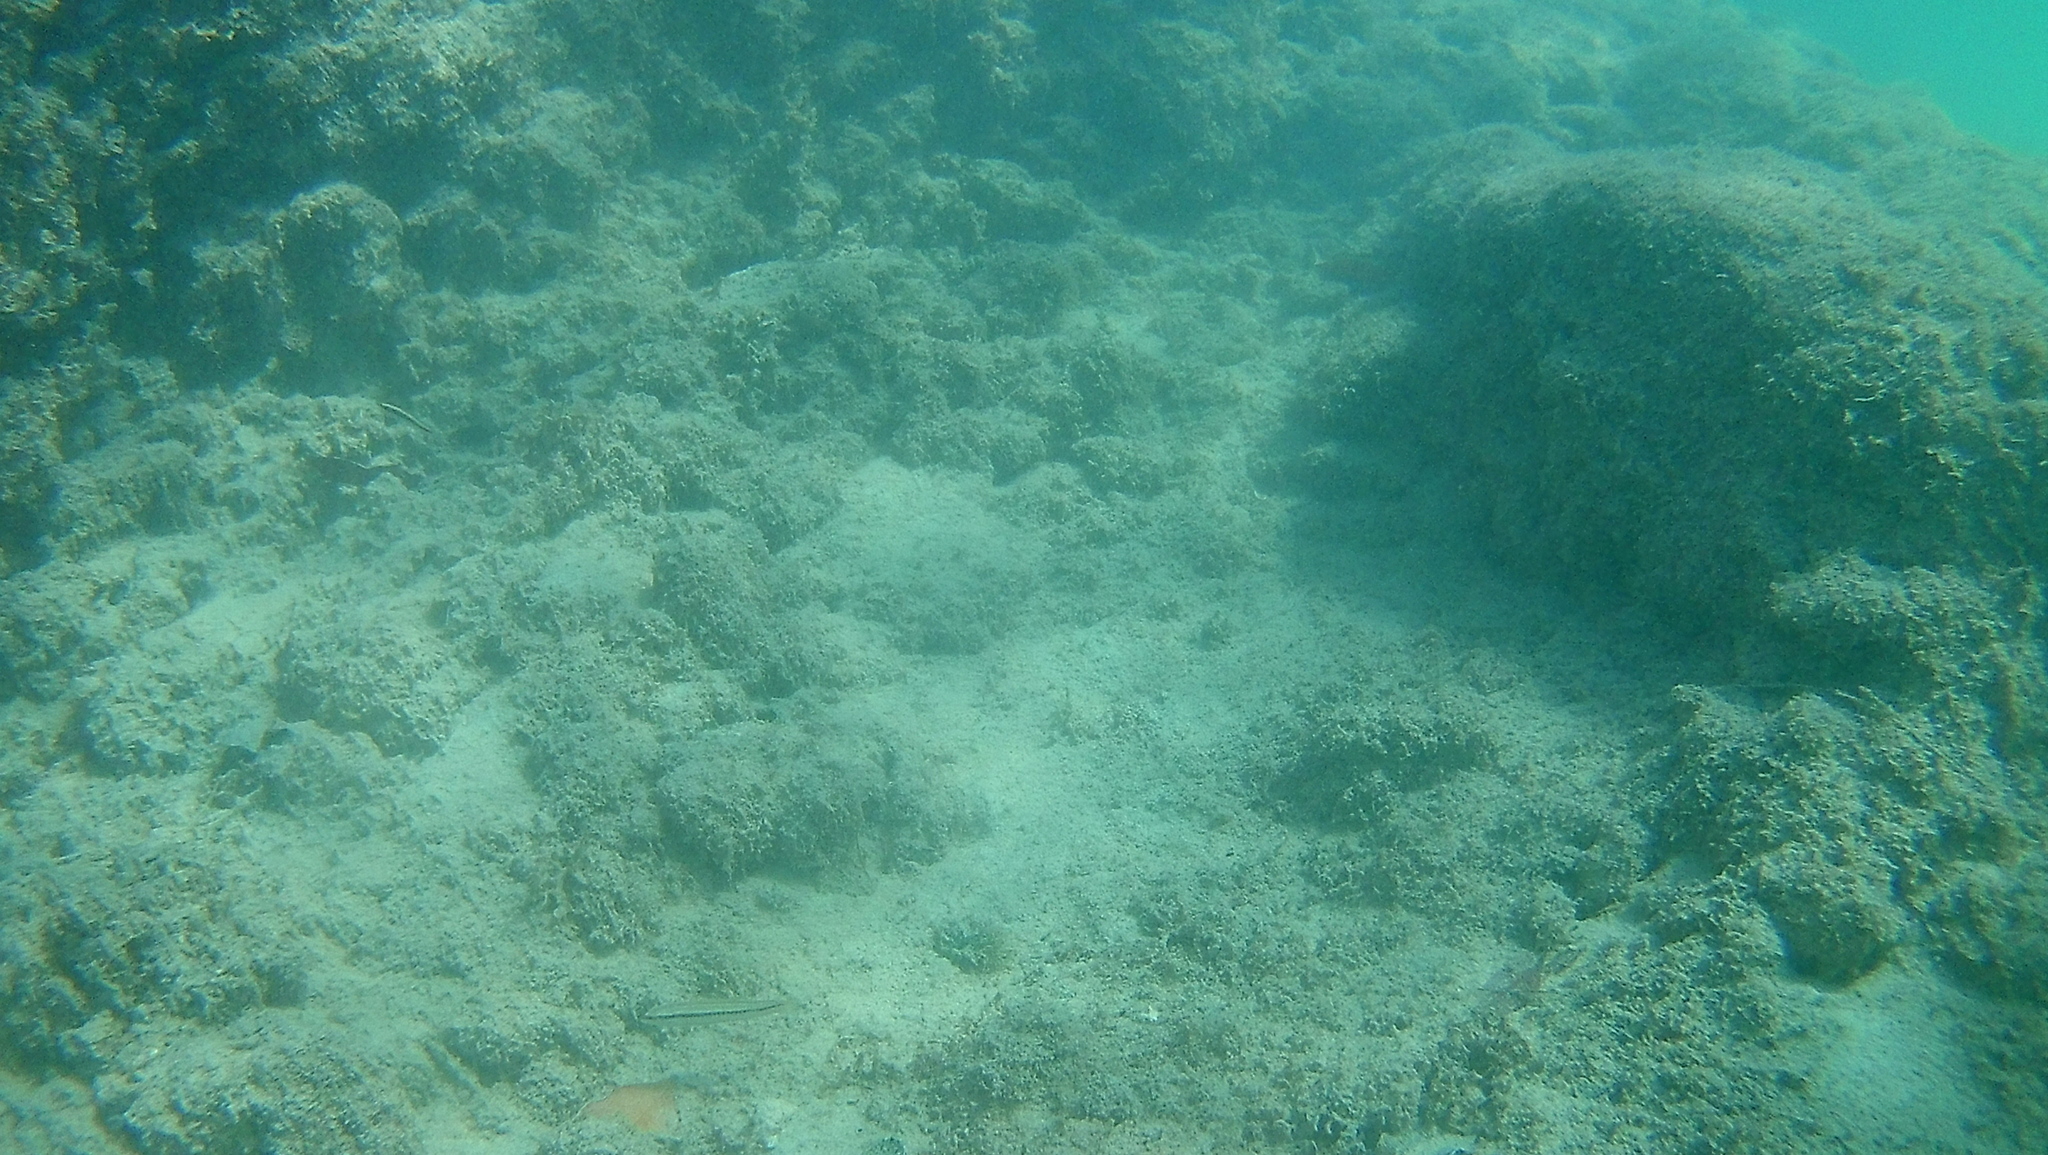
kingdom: Animalia
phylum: Chordata
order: Perciformes
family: Labridae
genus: Halichoeres
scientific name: Halichoeres bivittatus
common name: Slippery dick
